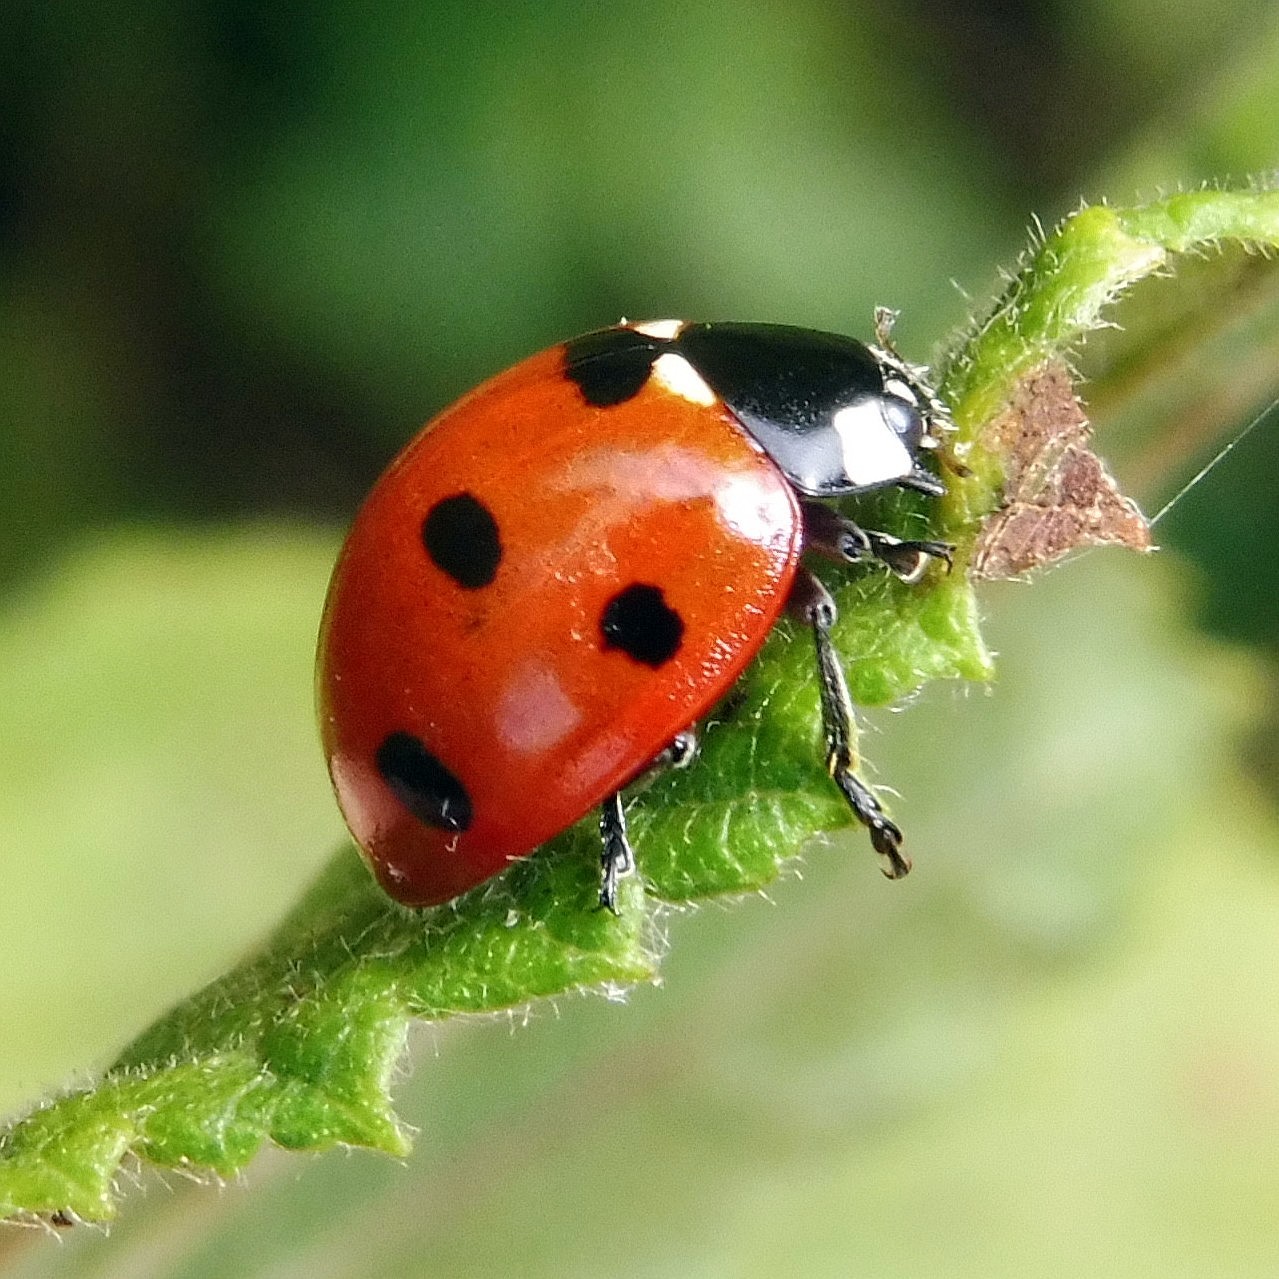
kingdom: Animalia
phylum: Arthropoda
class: Insecta
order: Coleoptera
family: Coccinellidae
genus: Coccinella
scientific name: Coccinella septempunctata
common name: Sevenspotted lady beetle
